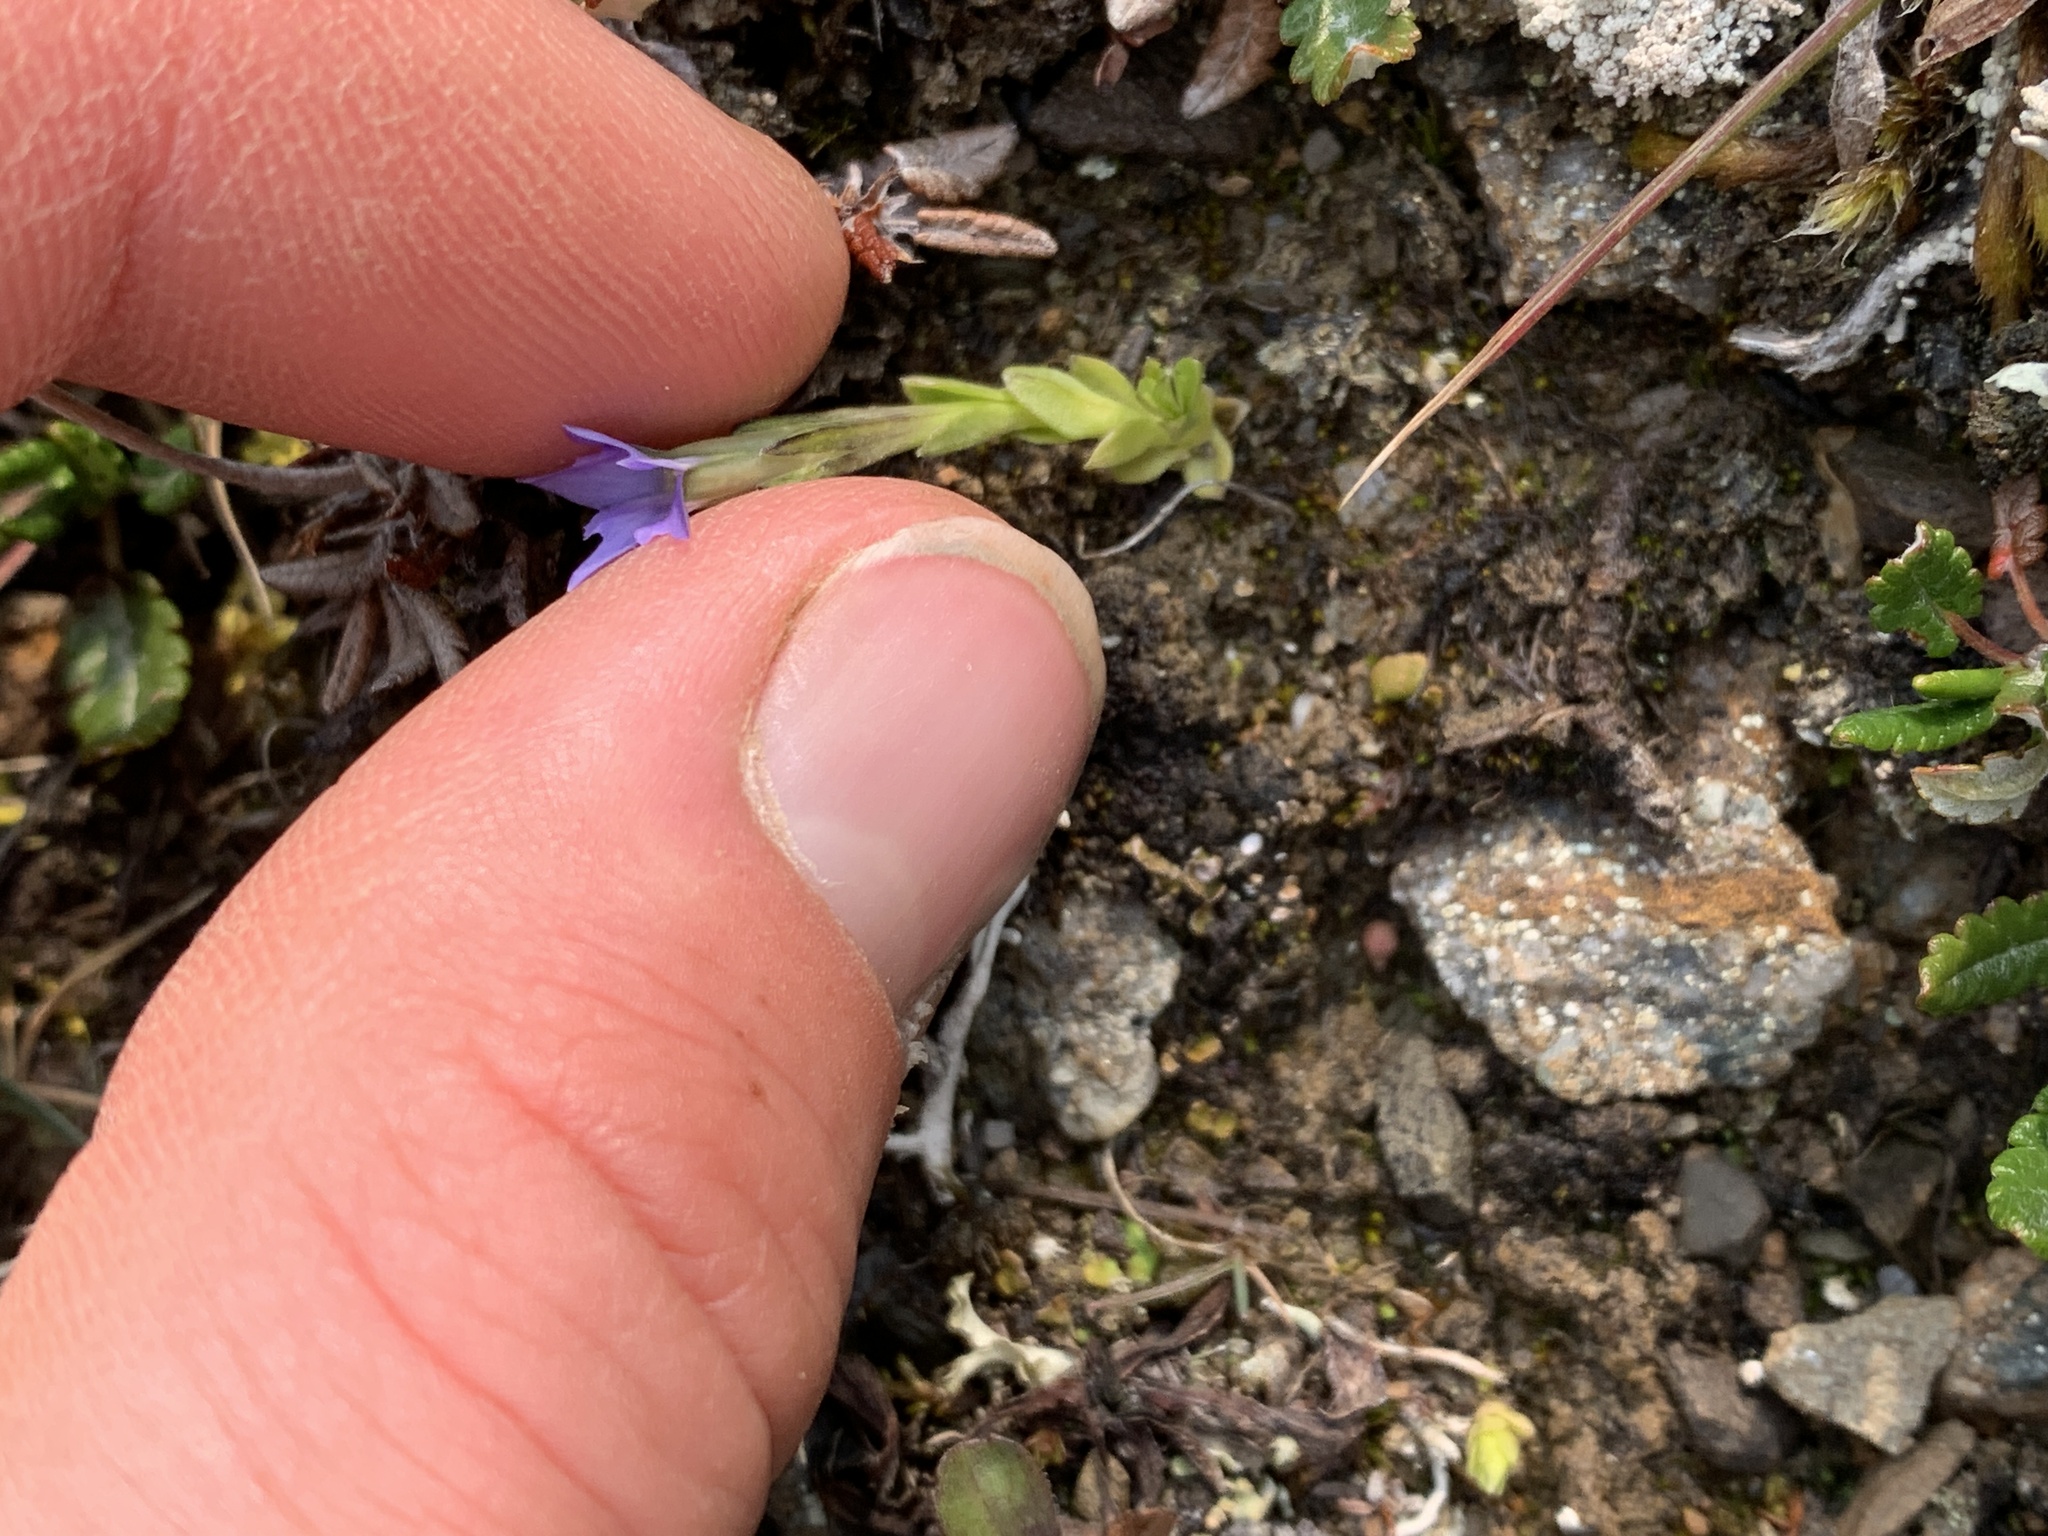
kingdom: Plantae
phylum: Tracheophyta
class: Magnoliopsida
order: Gentianales
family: Gentianaceae
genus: Gentiana
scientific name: Gentiana prostrata
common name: Moss gentian
